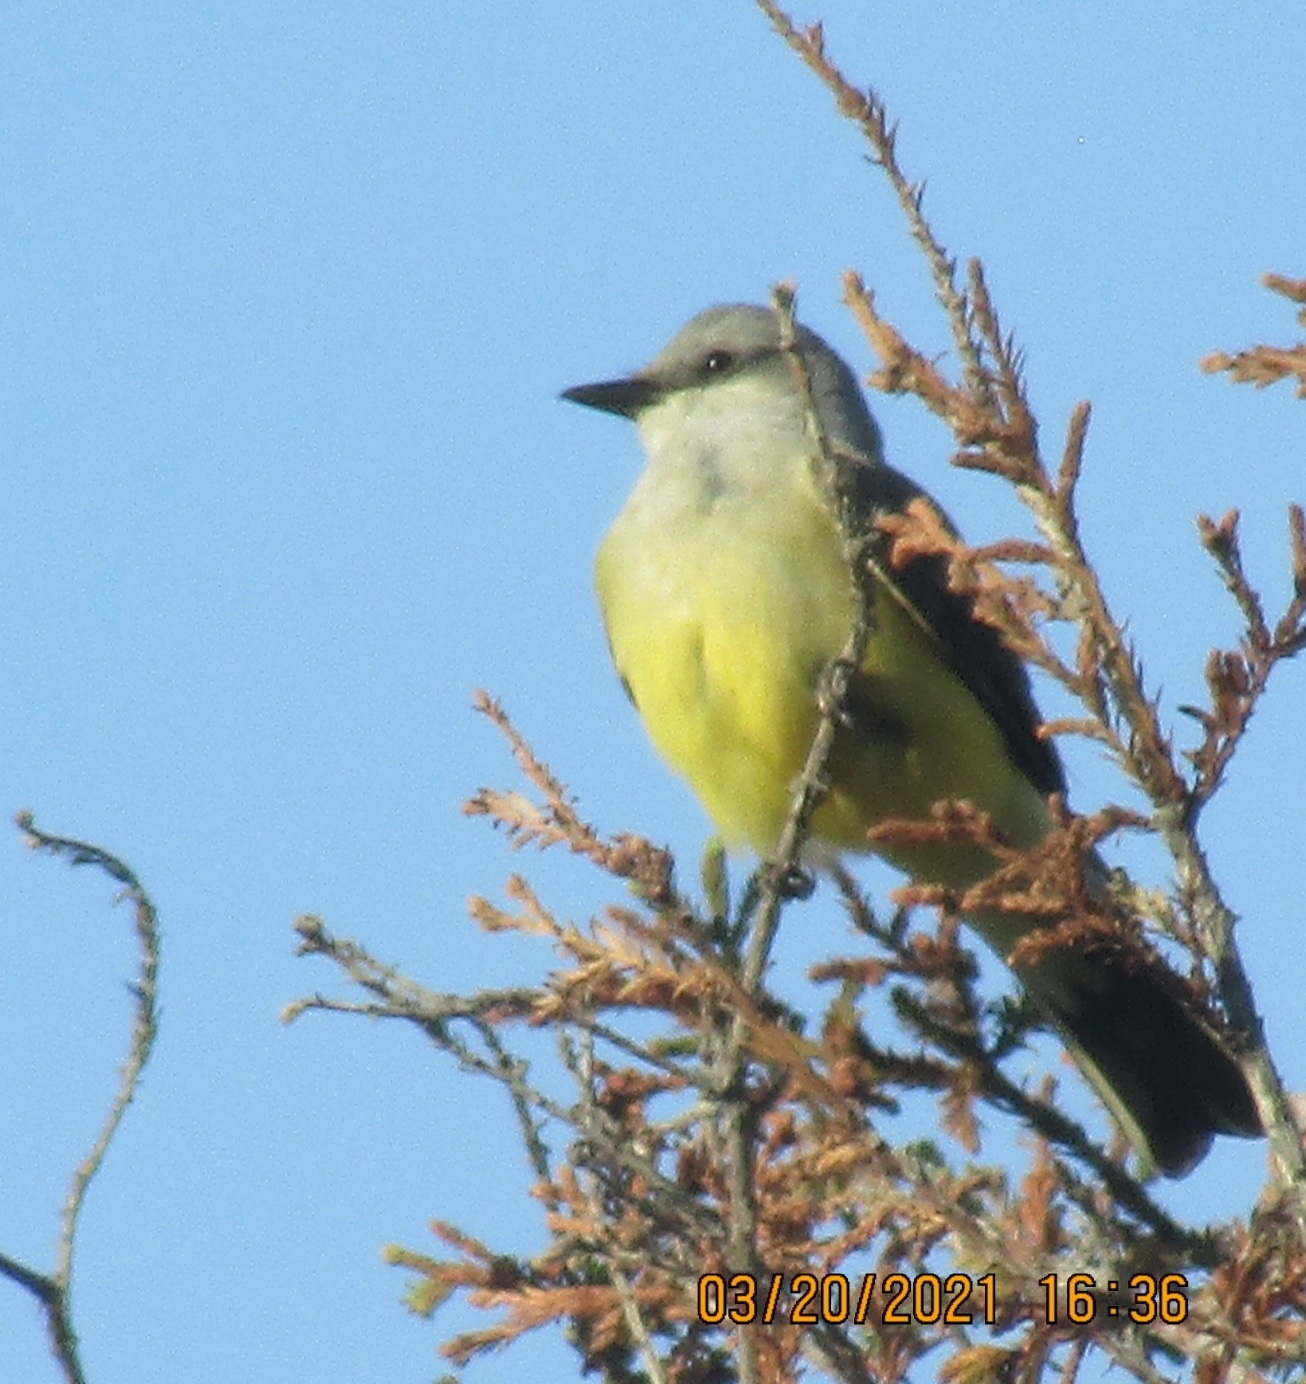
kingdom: Animalia
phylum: Chordata
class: Aves
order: Passeriformes
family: Tyrannidae
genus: Tyrannus
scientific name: Tyrannus verticalis
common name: Western kingbird
